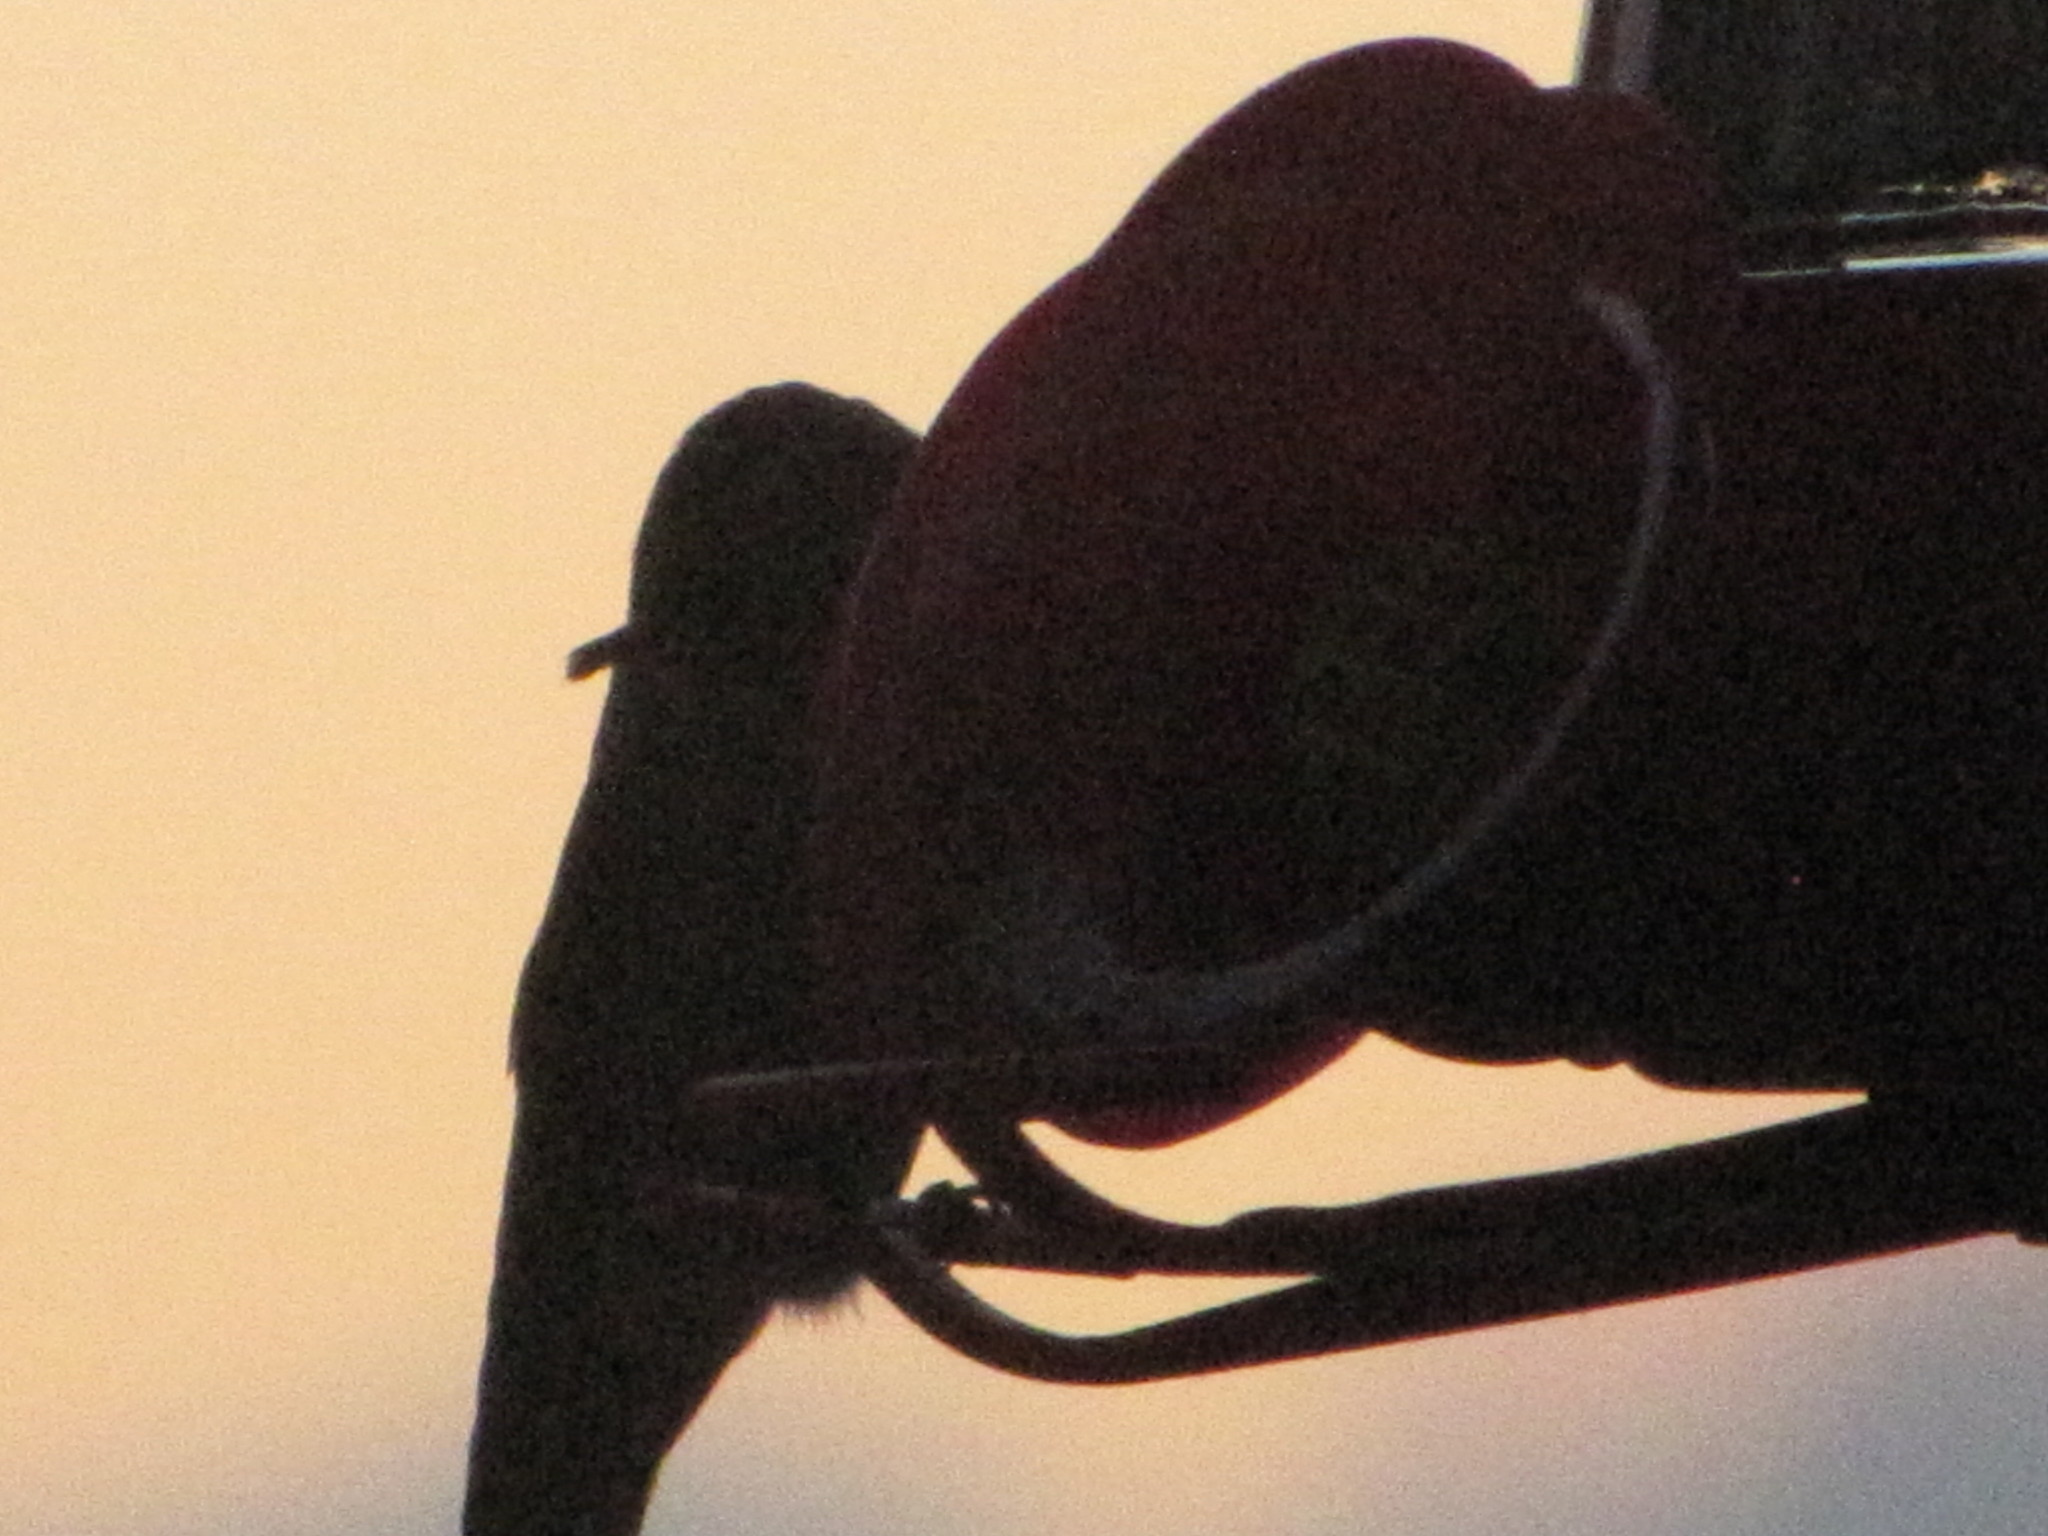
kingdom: Animalia
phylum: Chordata
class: Aves
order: Apodiformes
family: Trochilidae
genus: Calypte
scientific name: Calypte anna
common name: Anna's hummingbird
